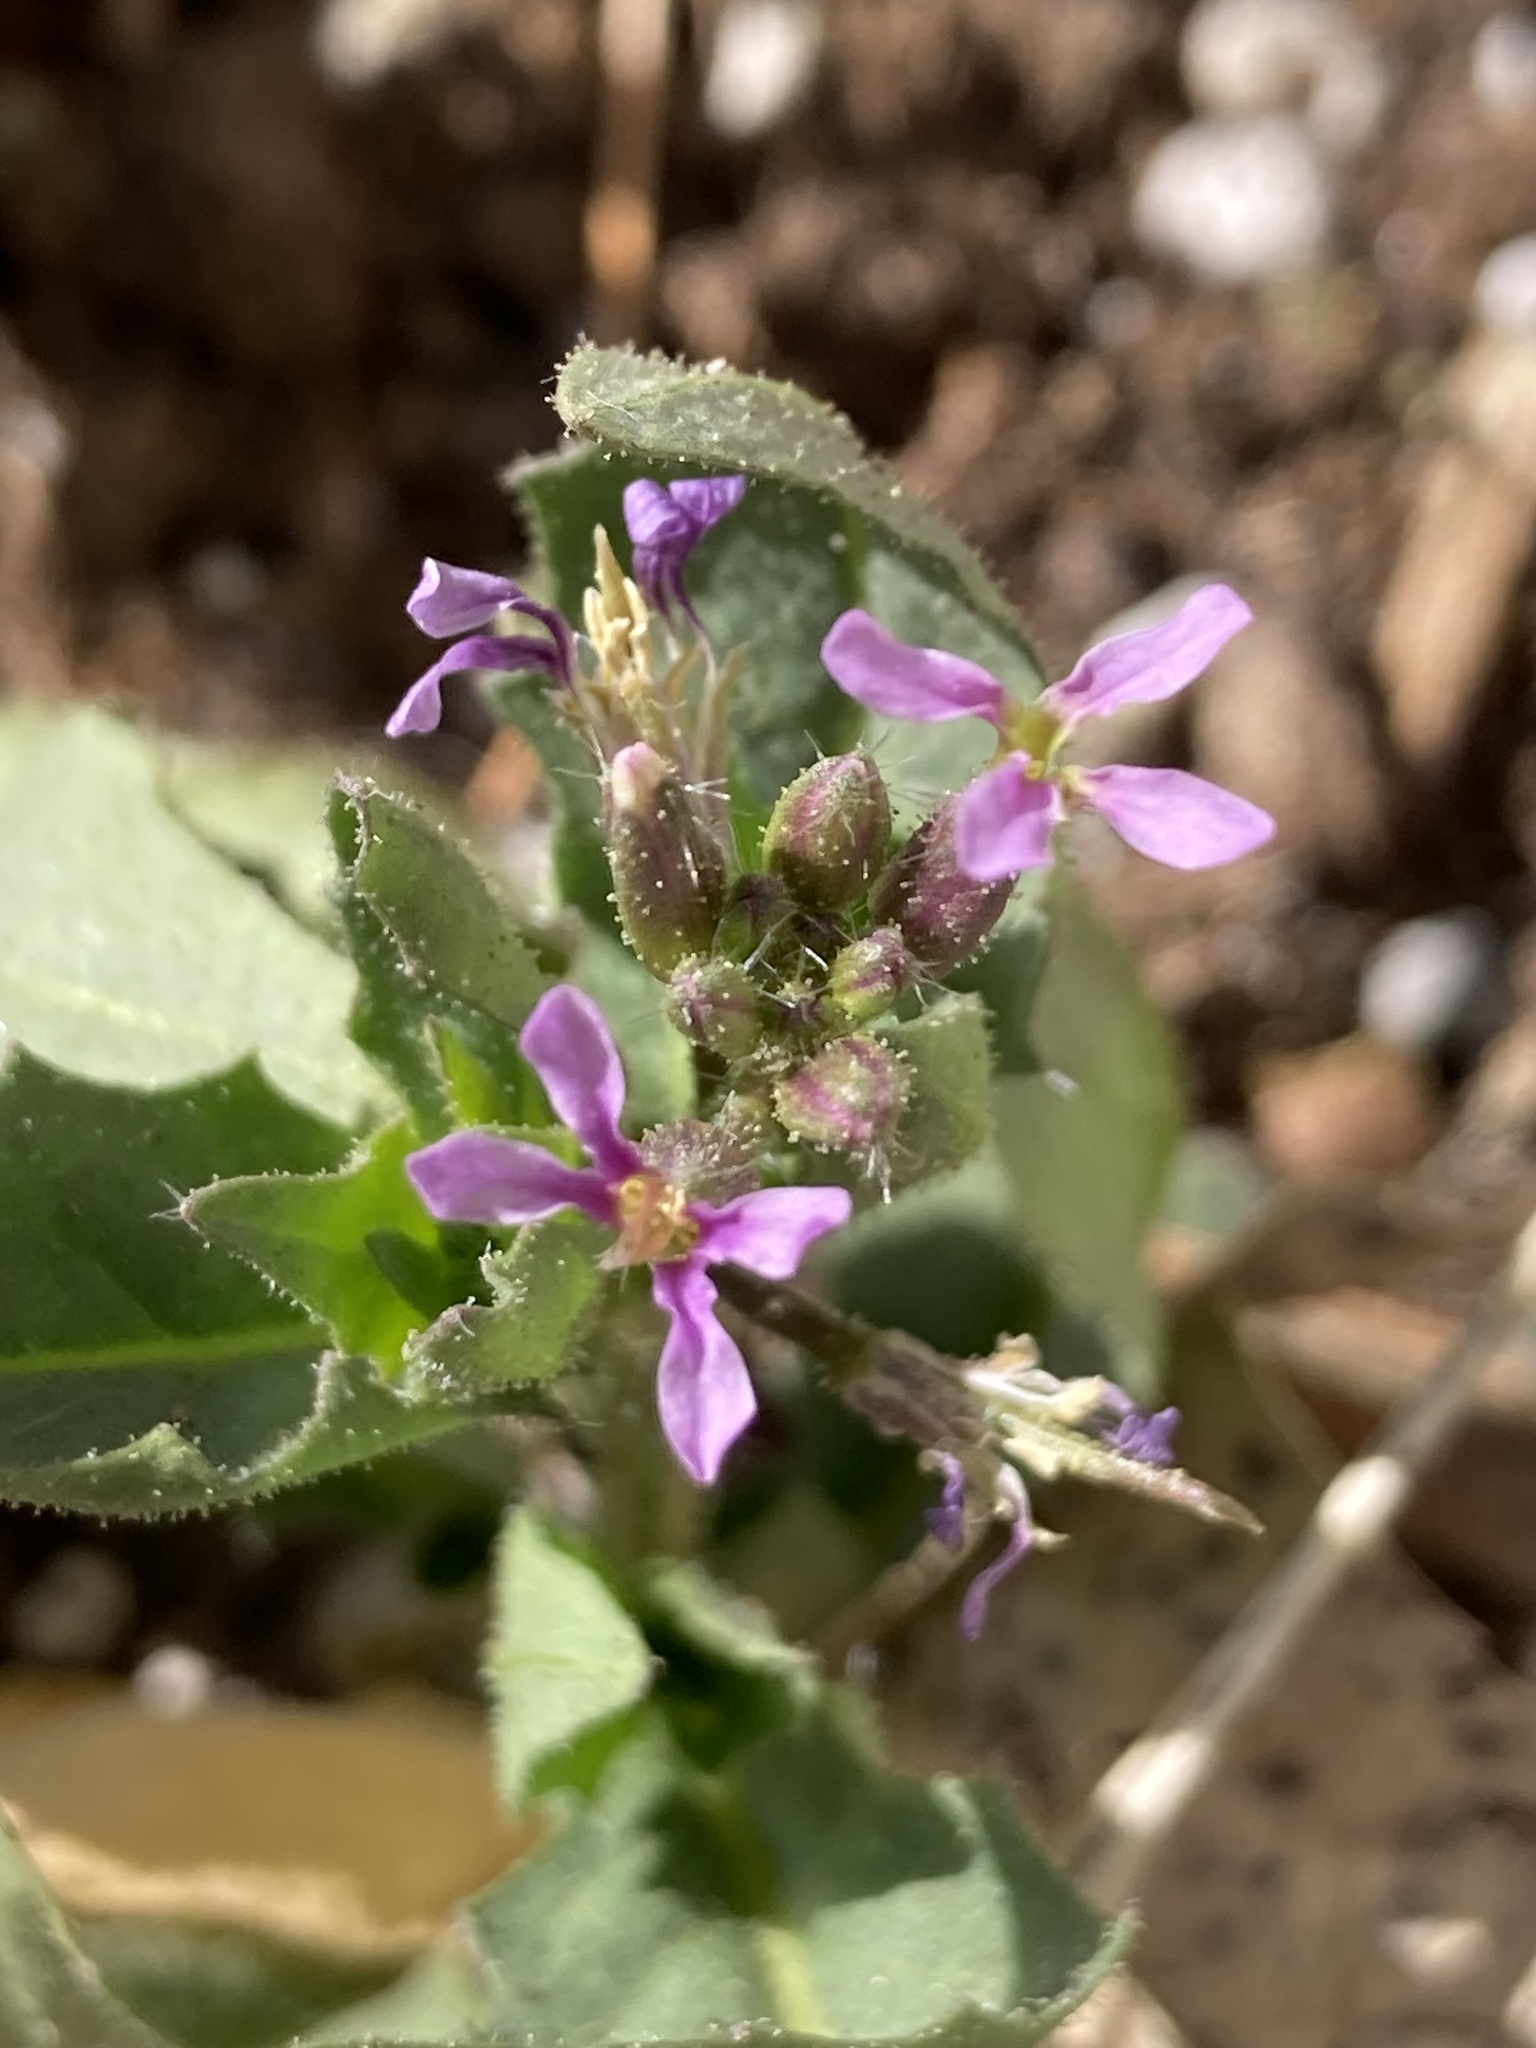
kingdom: Plantae
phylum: Tracheophyta
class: Magnoliopsida
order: Brassicales
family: Brassicaceae
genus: Chorispora
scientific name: Chorispora tenella
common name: Crossflower
